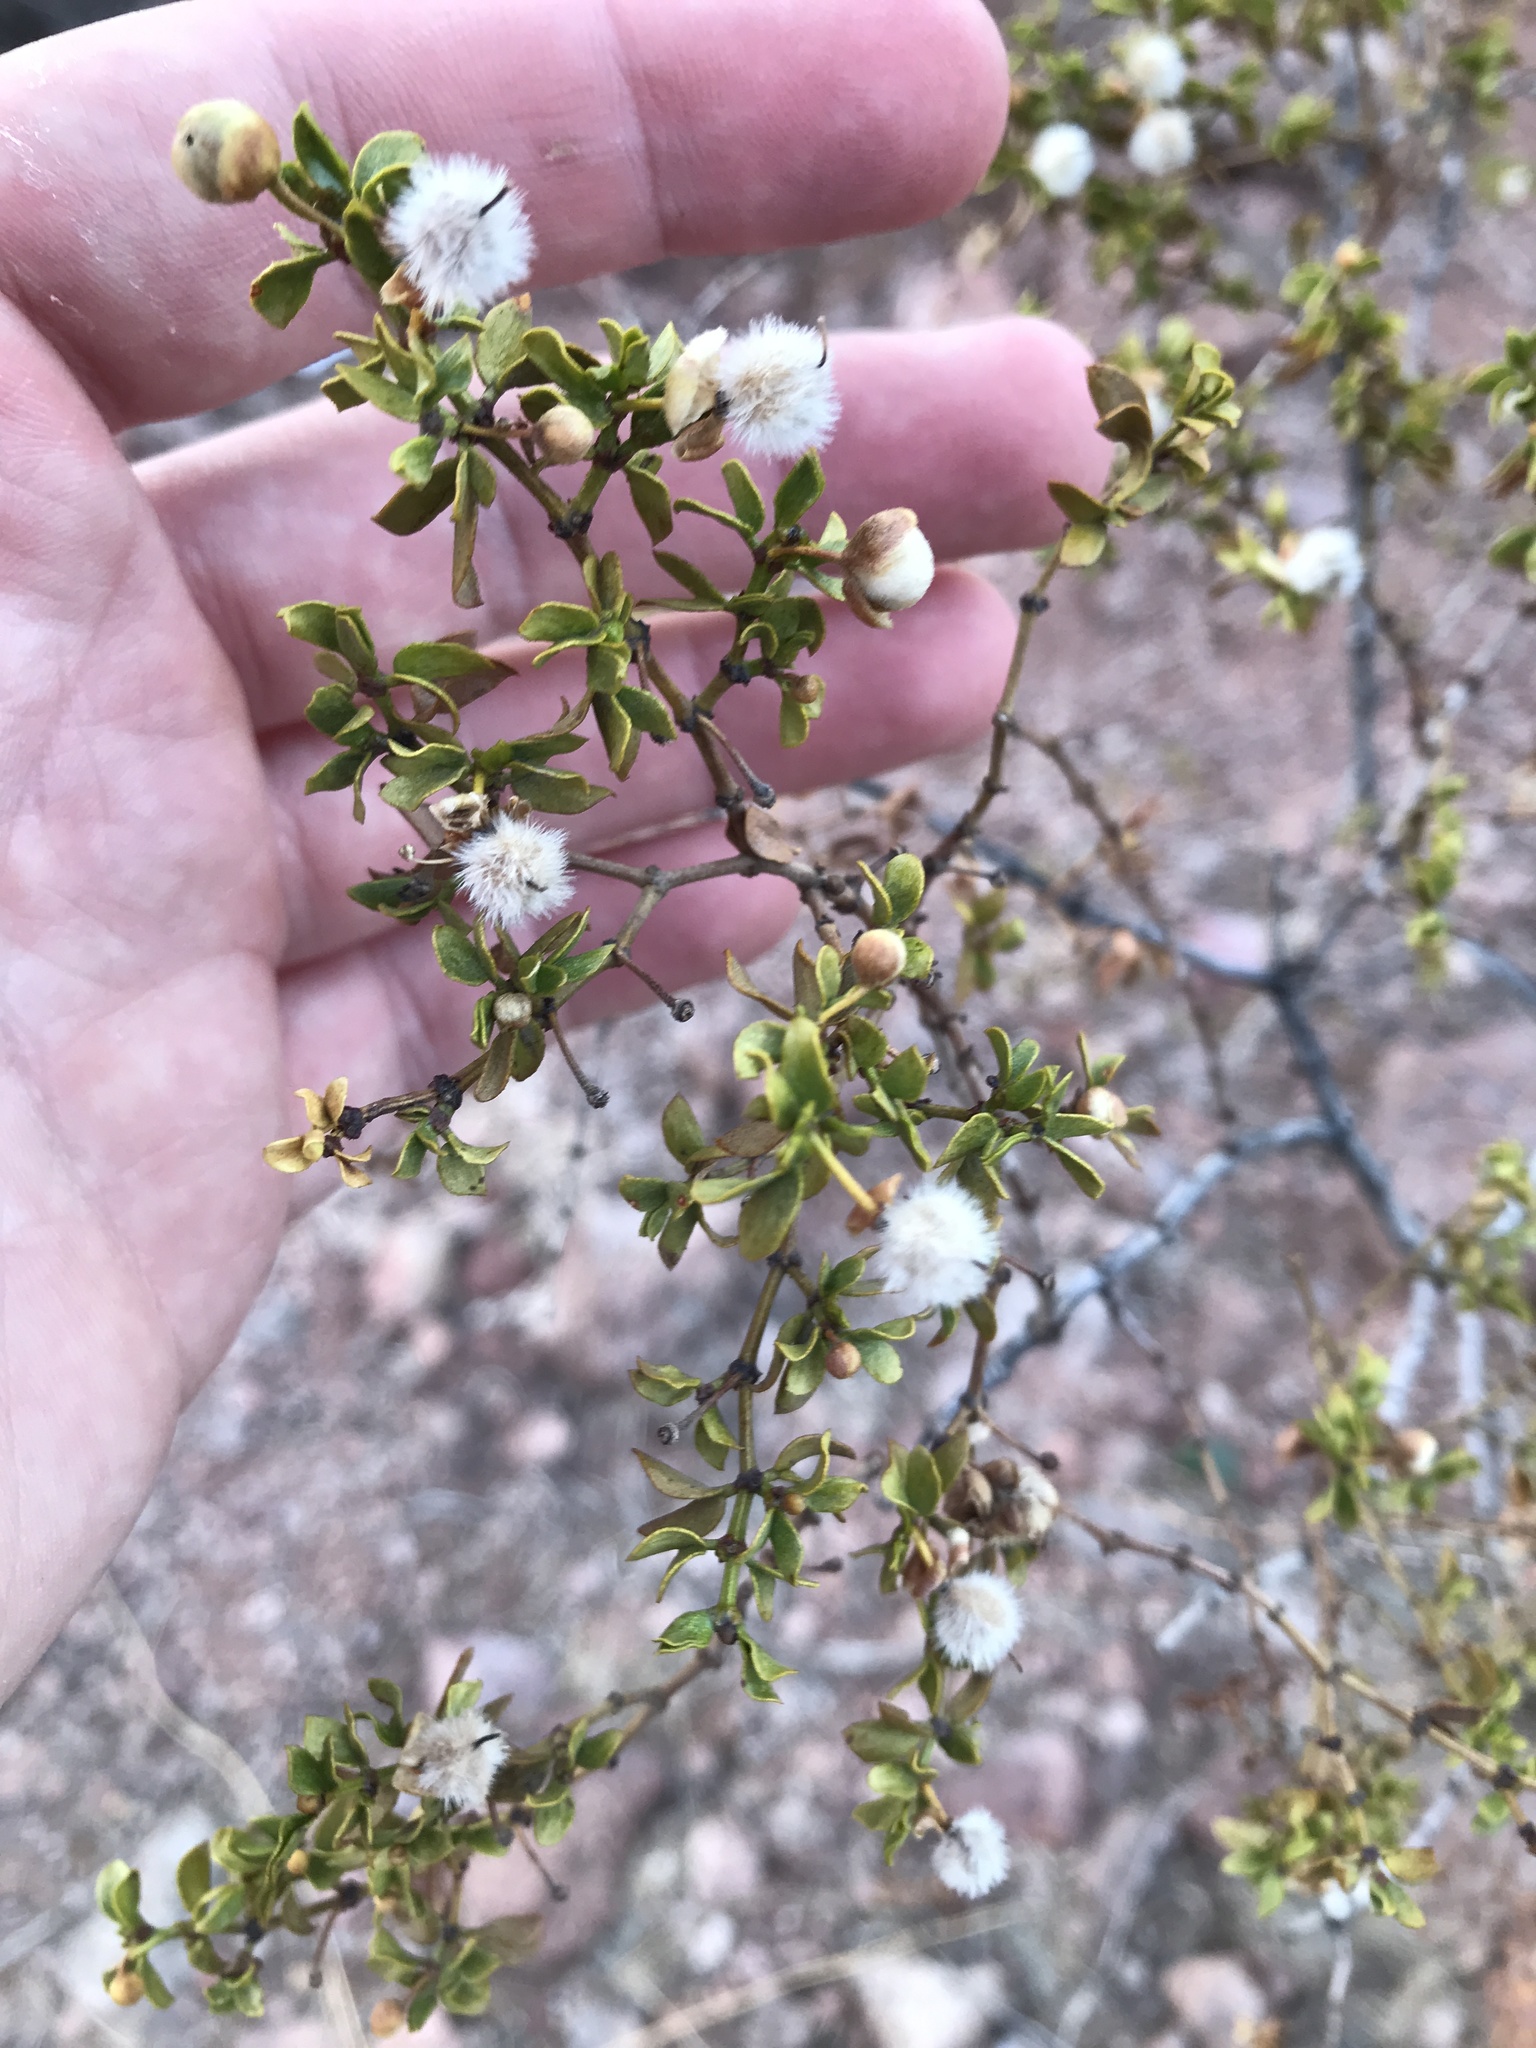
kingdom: Plantae
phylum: Tracheophyta
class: Magnoliopsida
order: Zygophyllales
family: Zygophyllaceae
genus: Larrea
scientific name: Larrea tridentata
